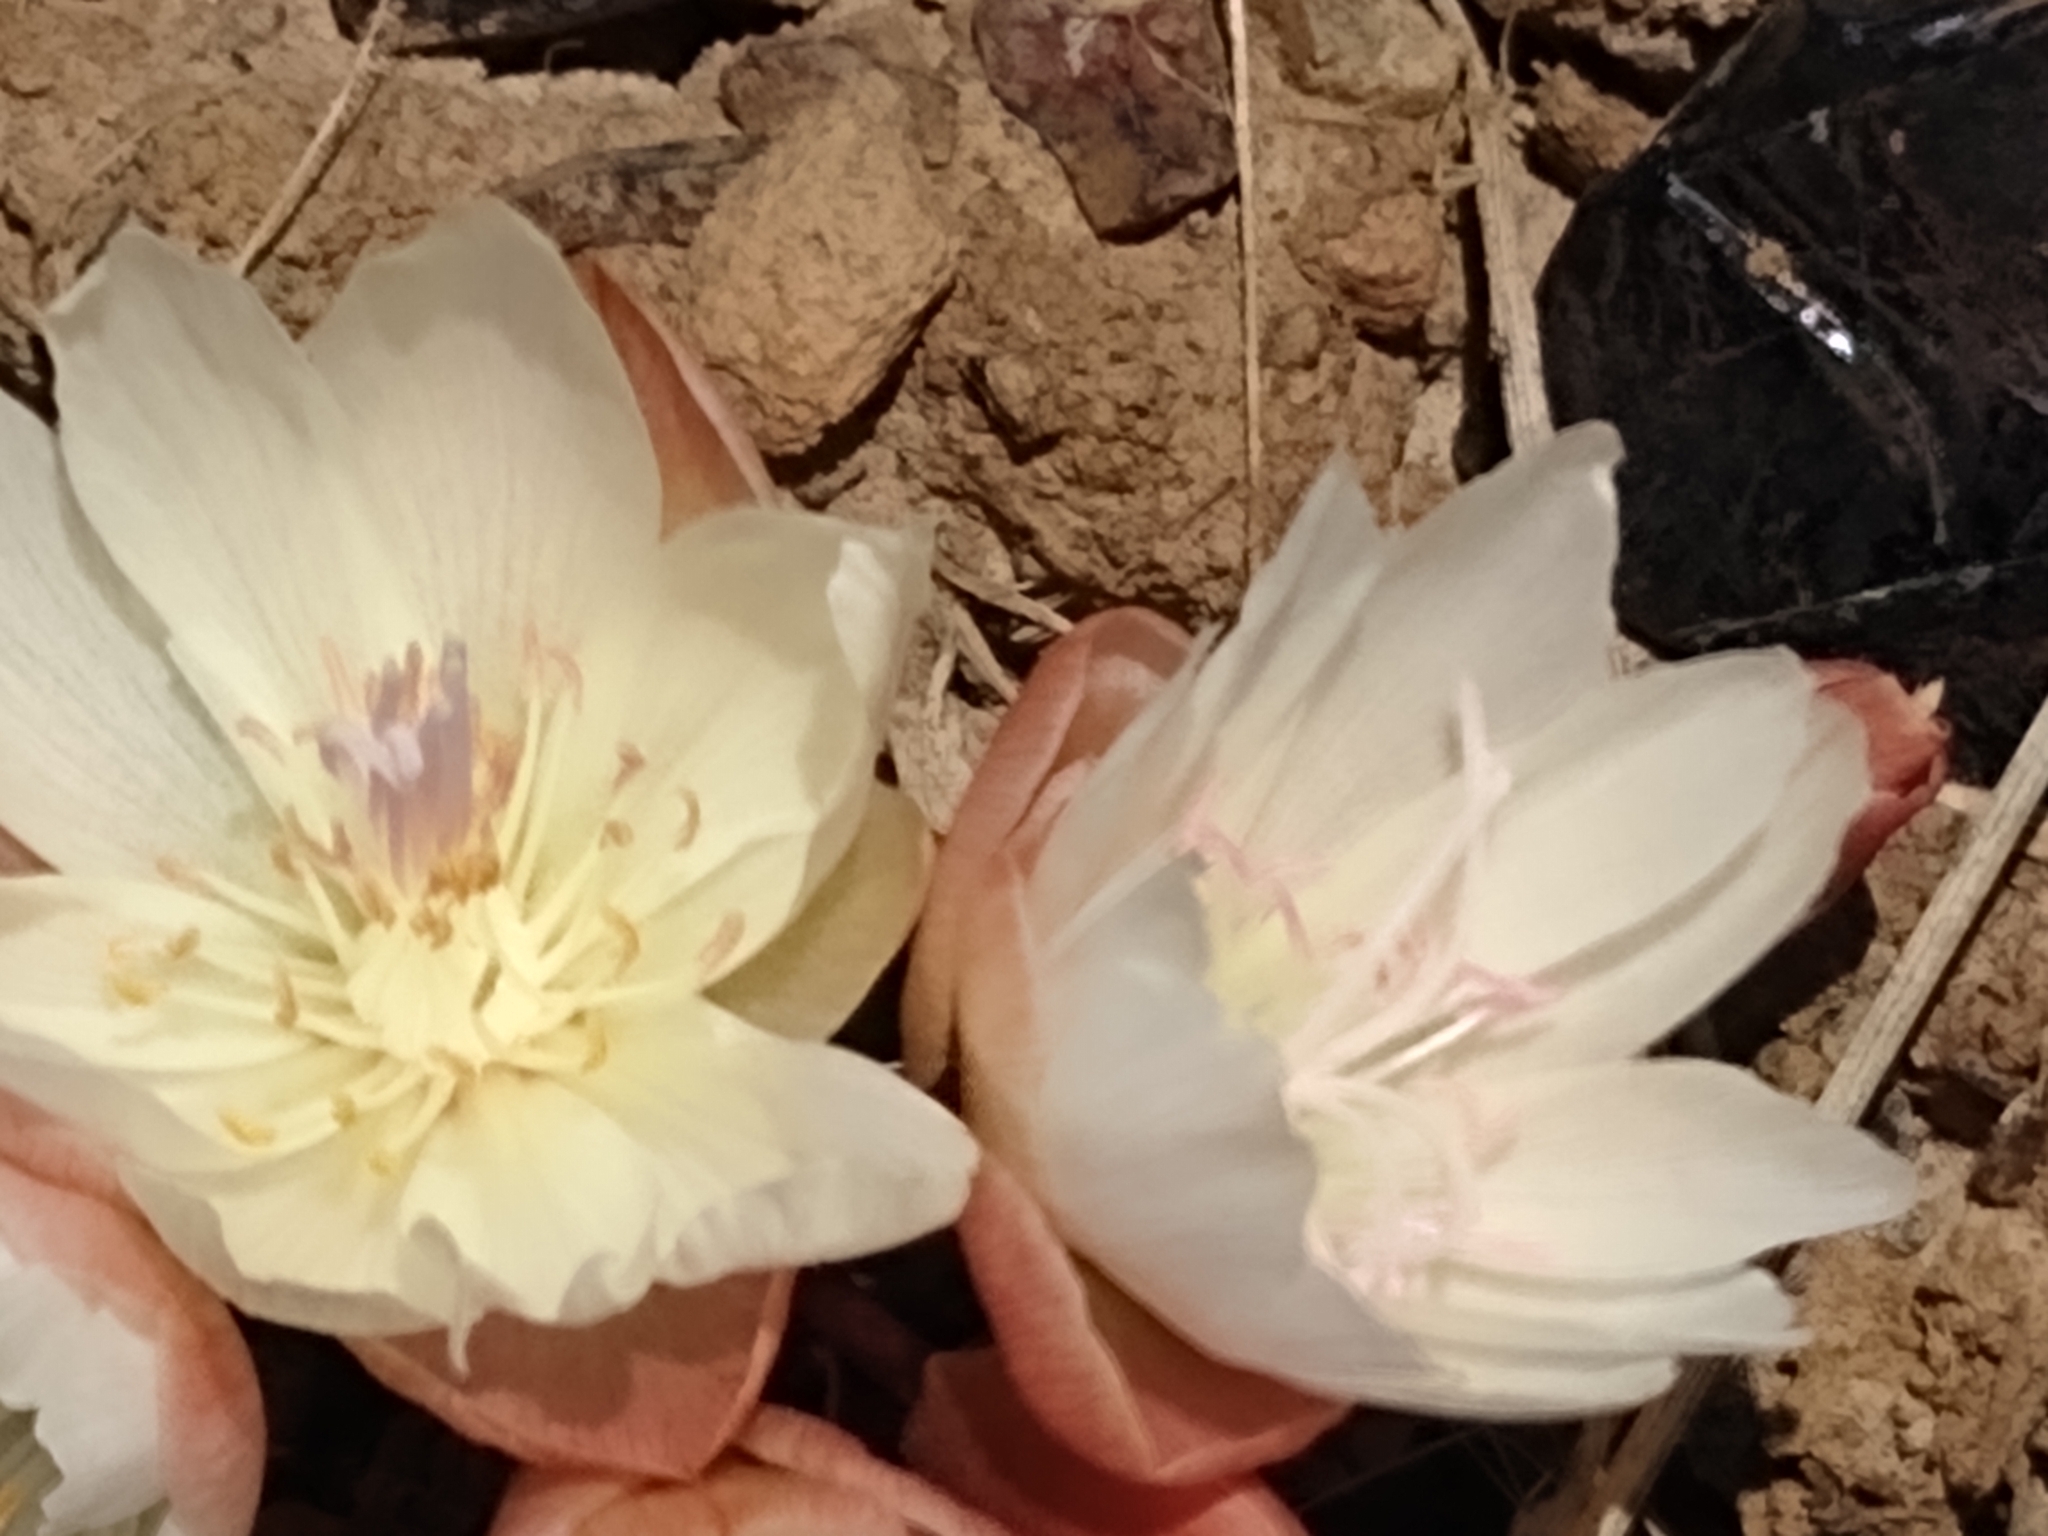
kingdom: Plantae
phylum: Tracheophyta
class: Magnoliopsida
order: Caryophyllales
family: Montiaceae
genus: Lewisia
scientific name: Lewisia rediviva
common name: Bitter-root
